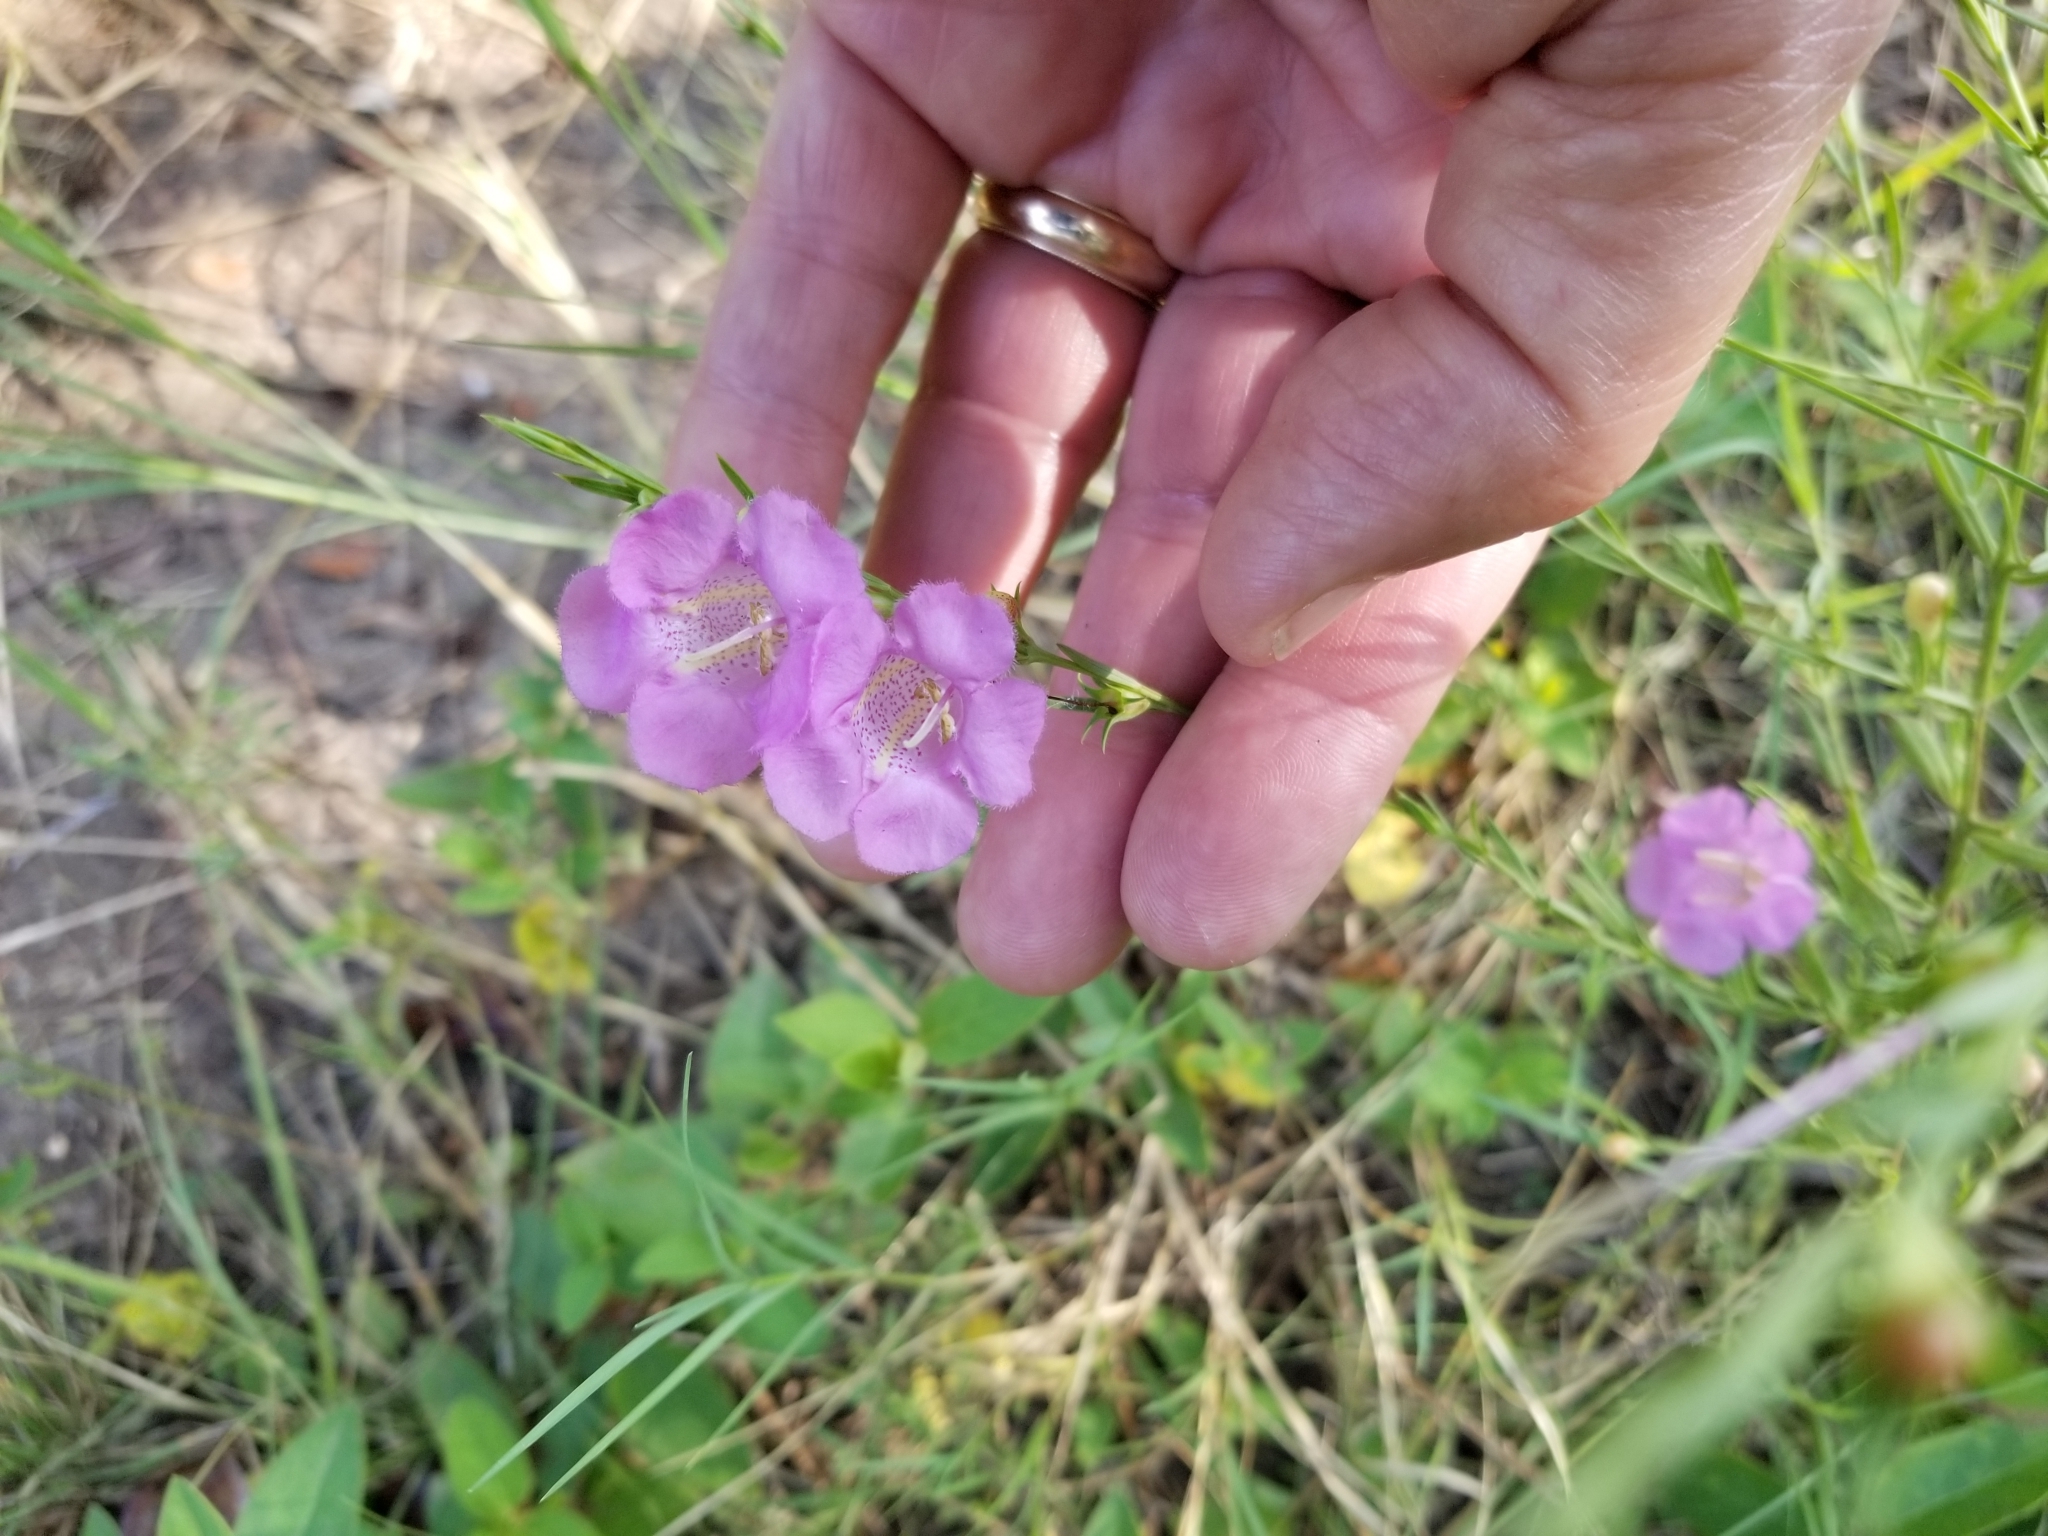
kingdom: Plantae
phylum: Tracheophyta
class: Magnoliopsida
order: Lamiales
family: Orobanchaceae
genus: Agalinis
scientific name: Agalinis heterophylla
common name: Prairie agalinis
